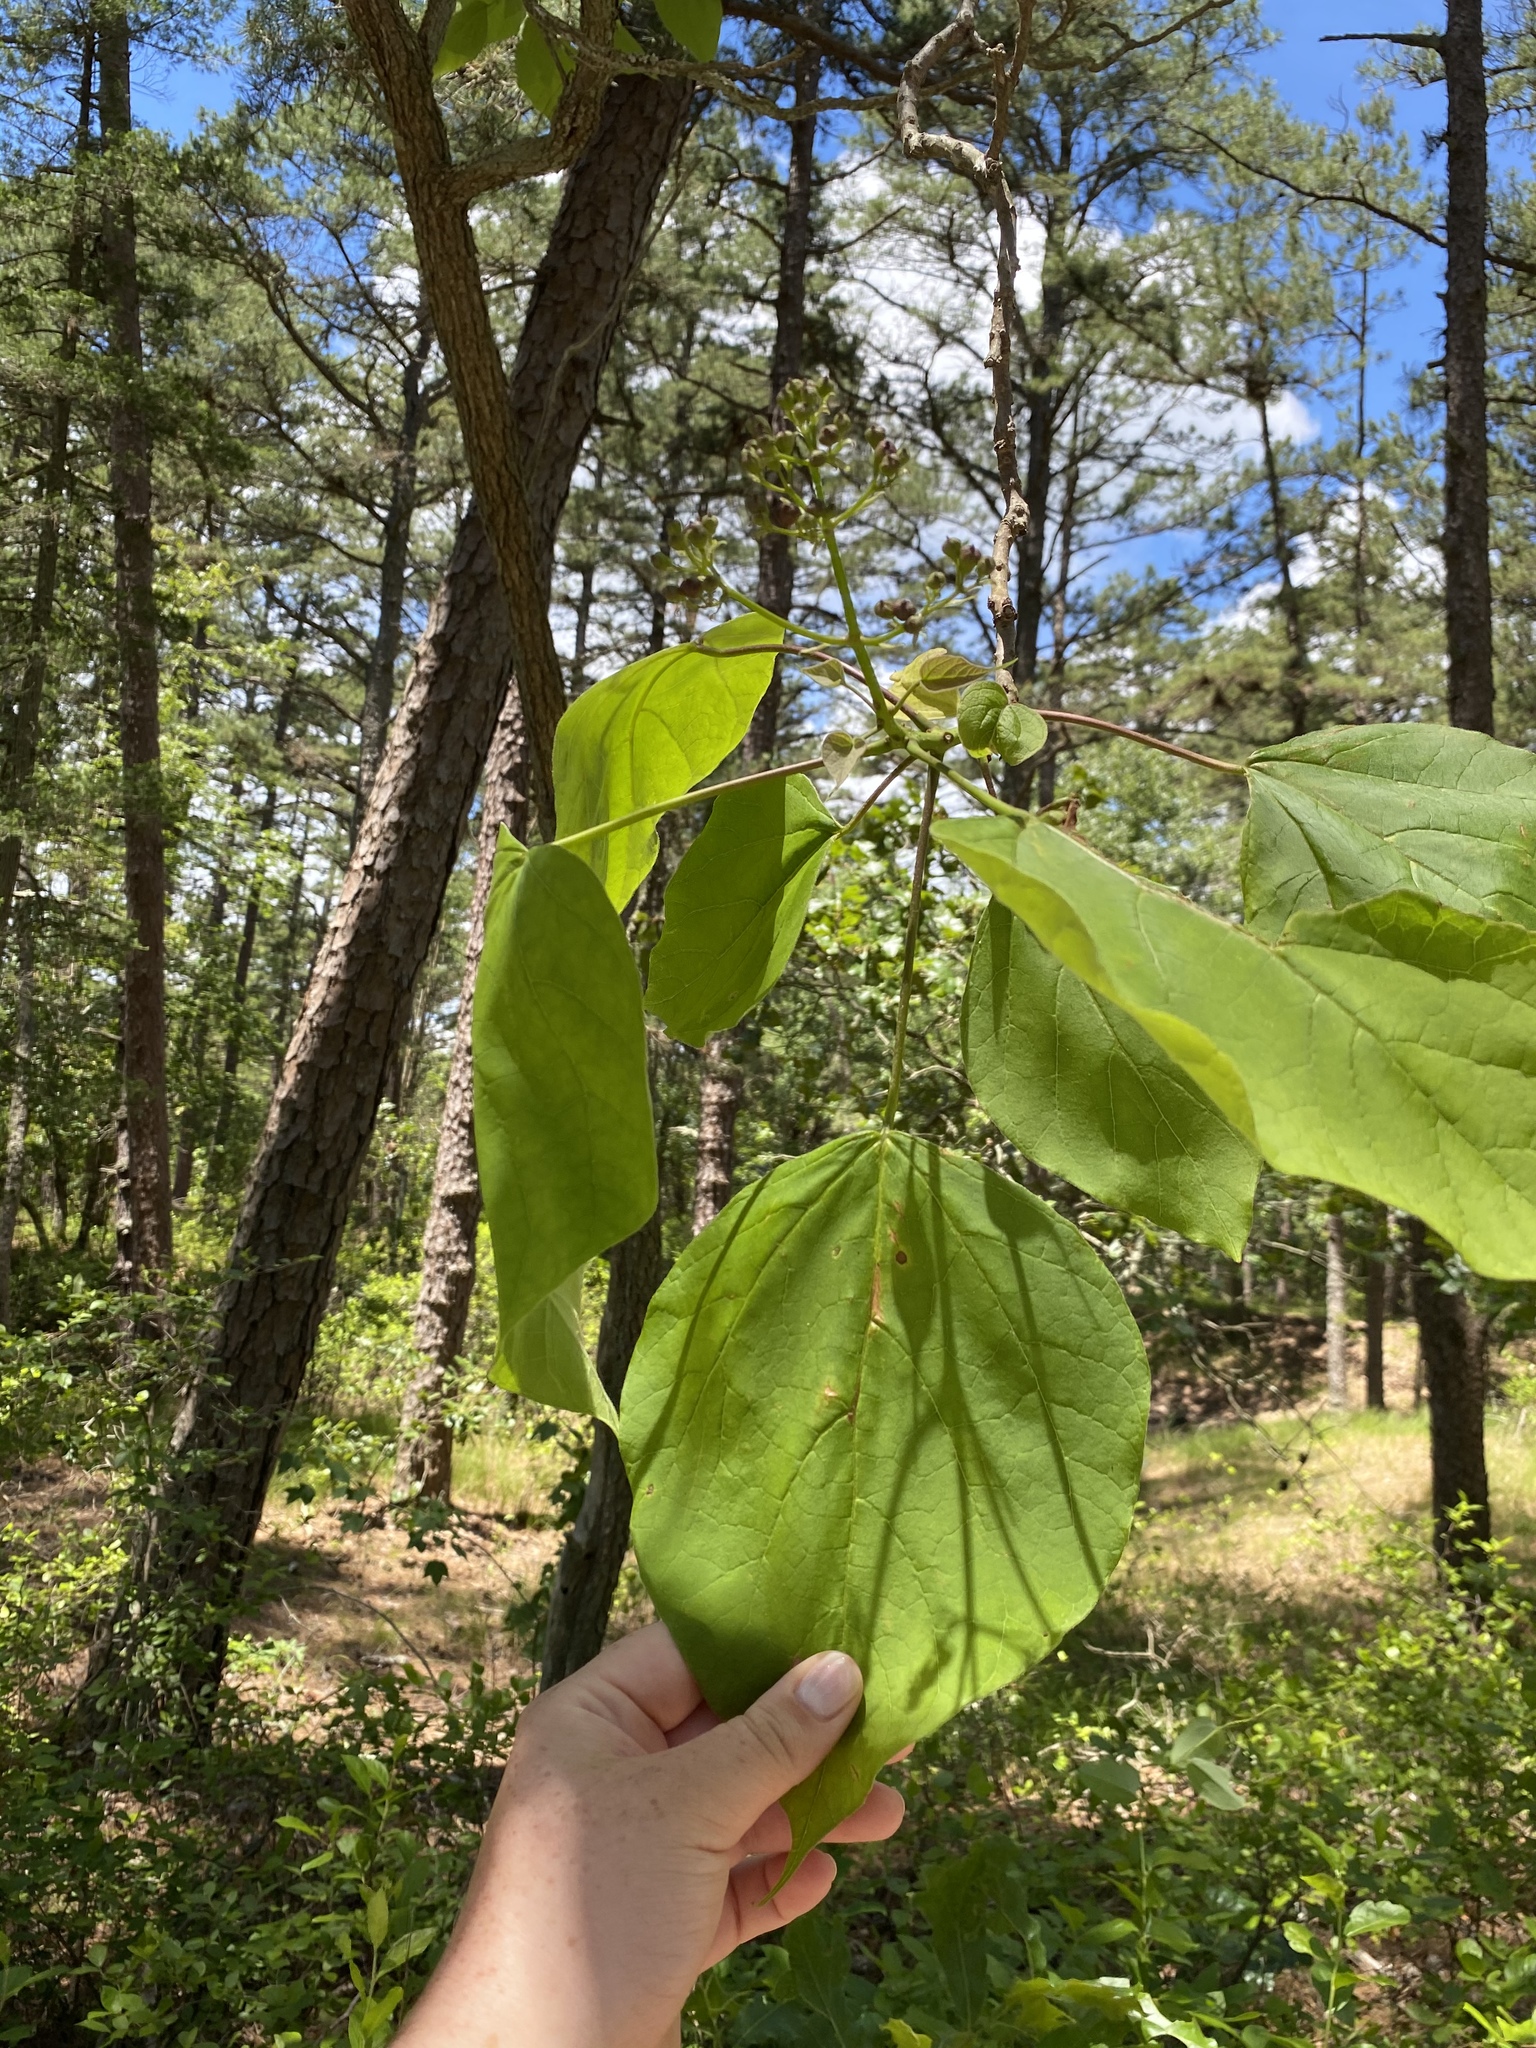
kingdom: Plantae
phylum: Tracheophyta
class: Magnoliopsida
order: Lamiales
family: Bignoniaceae
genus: Catalpa
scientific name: Catalpa speciosa
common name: Northern catalpa
